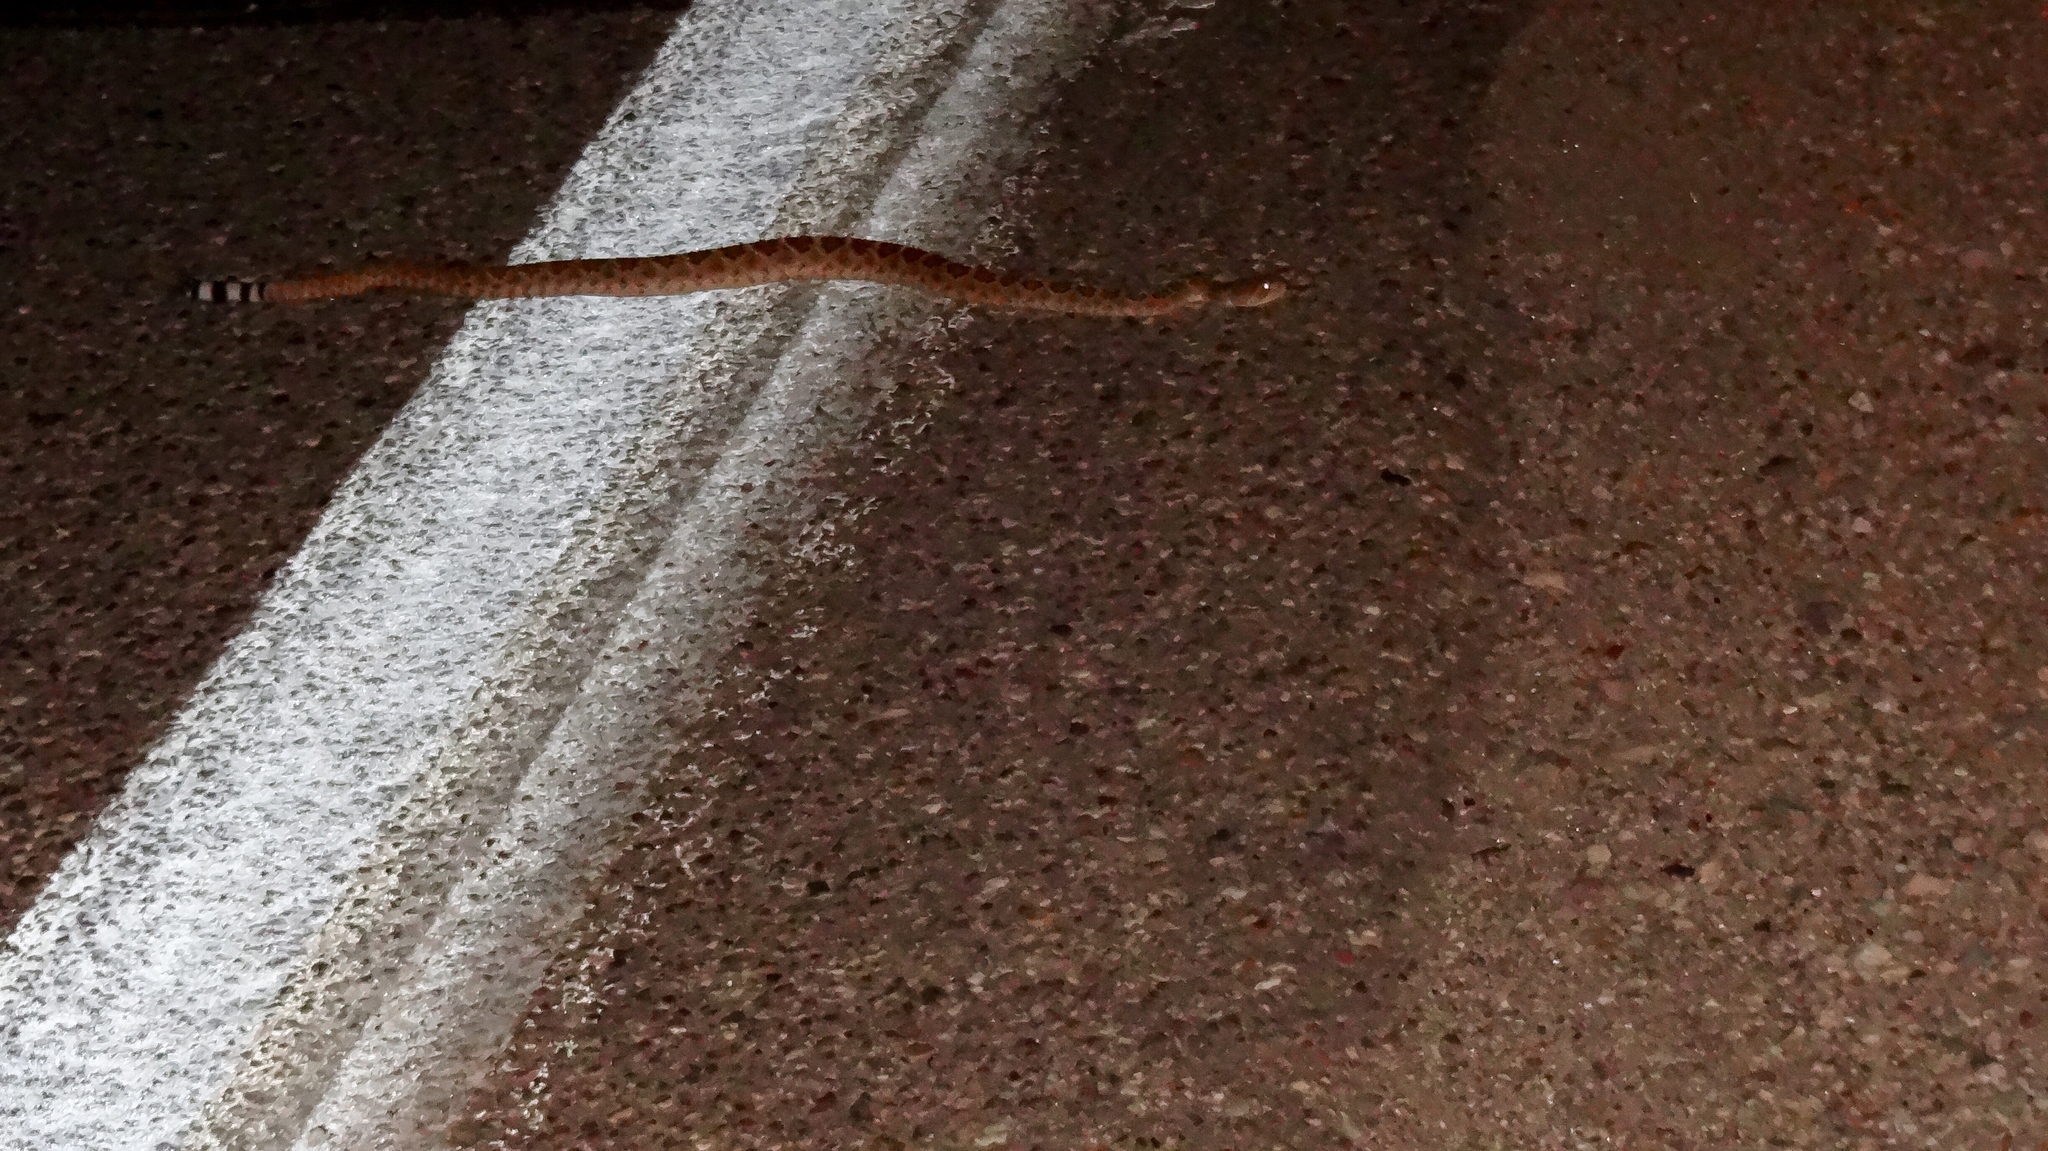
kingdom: Animalia
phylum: Chordata
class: Squamata
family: Viperidae
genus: Crotalus
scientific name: Crotalus atrox
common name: Western diamond-backed rattlesnake
